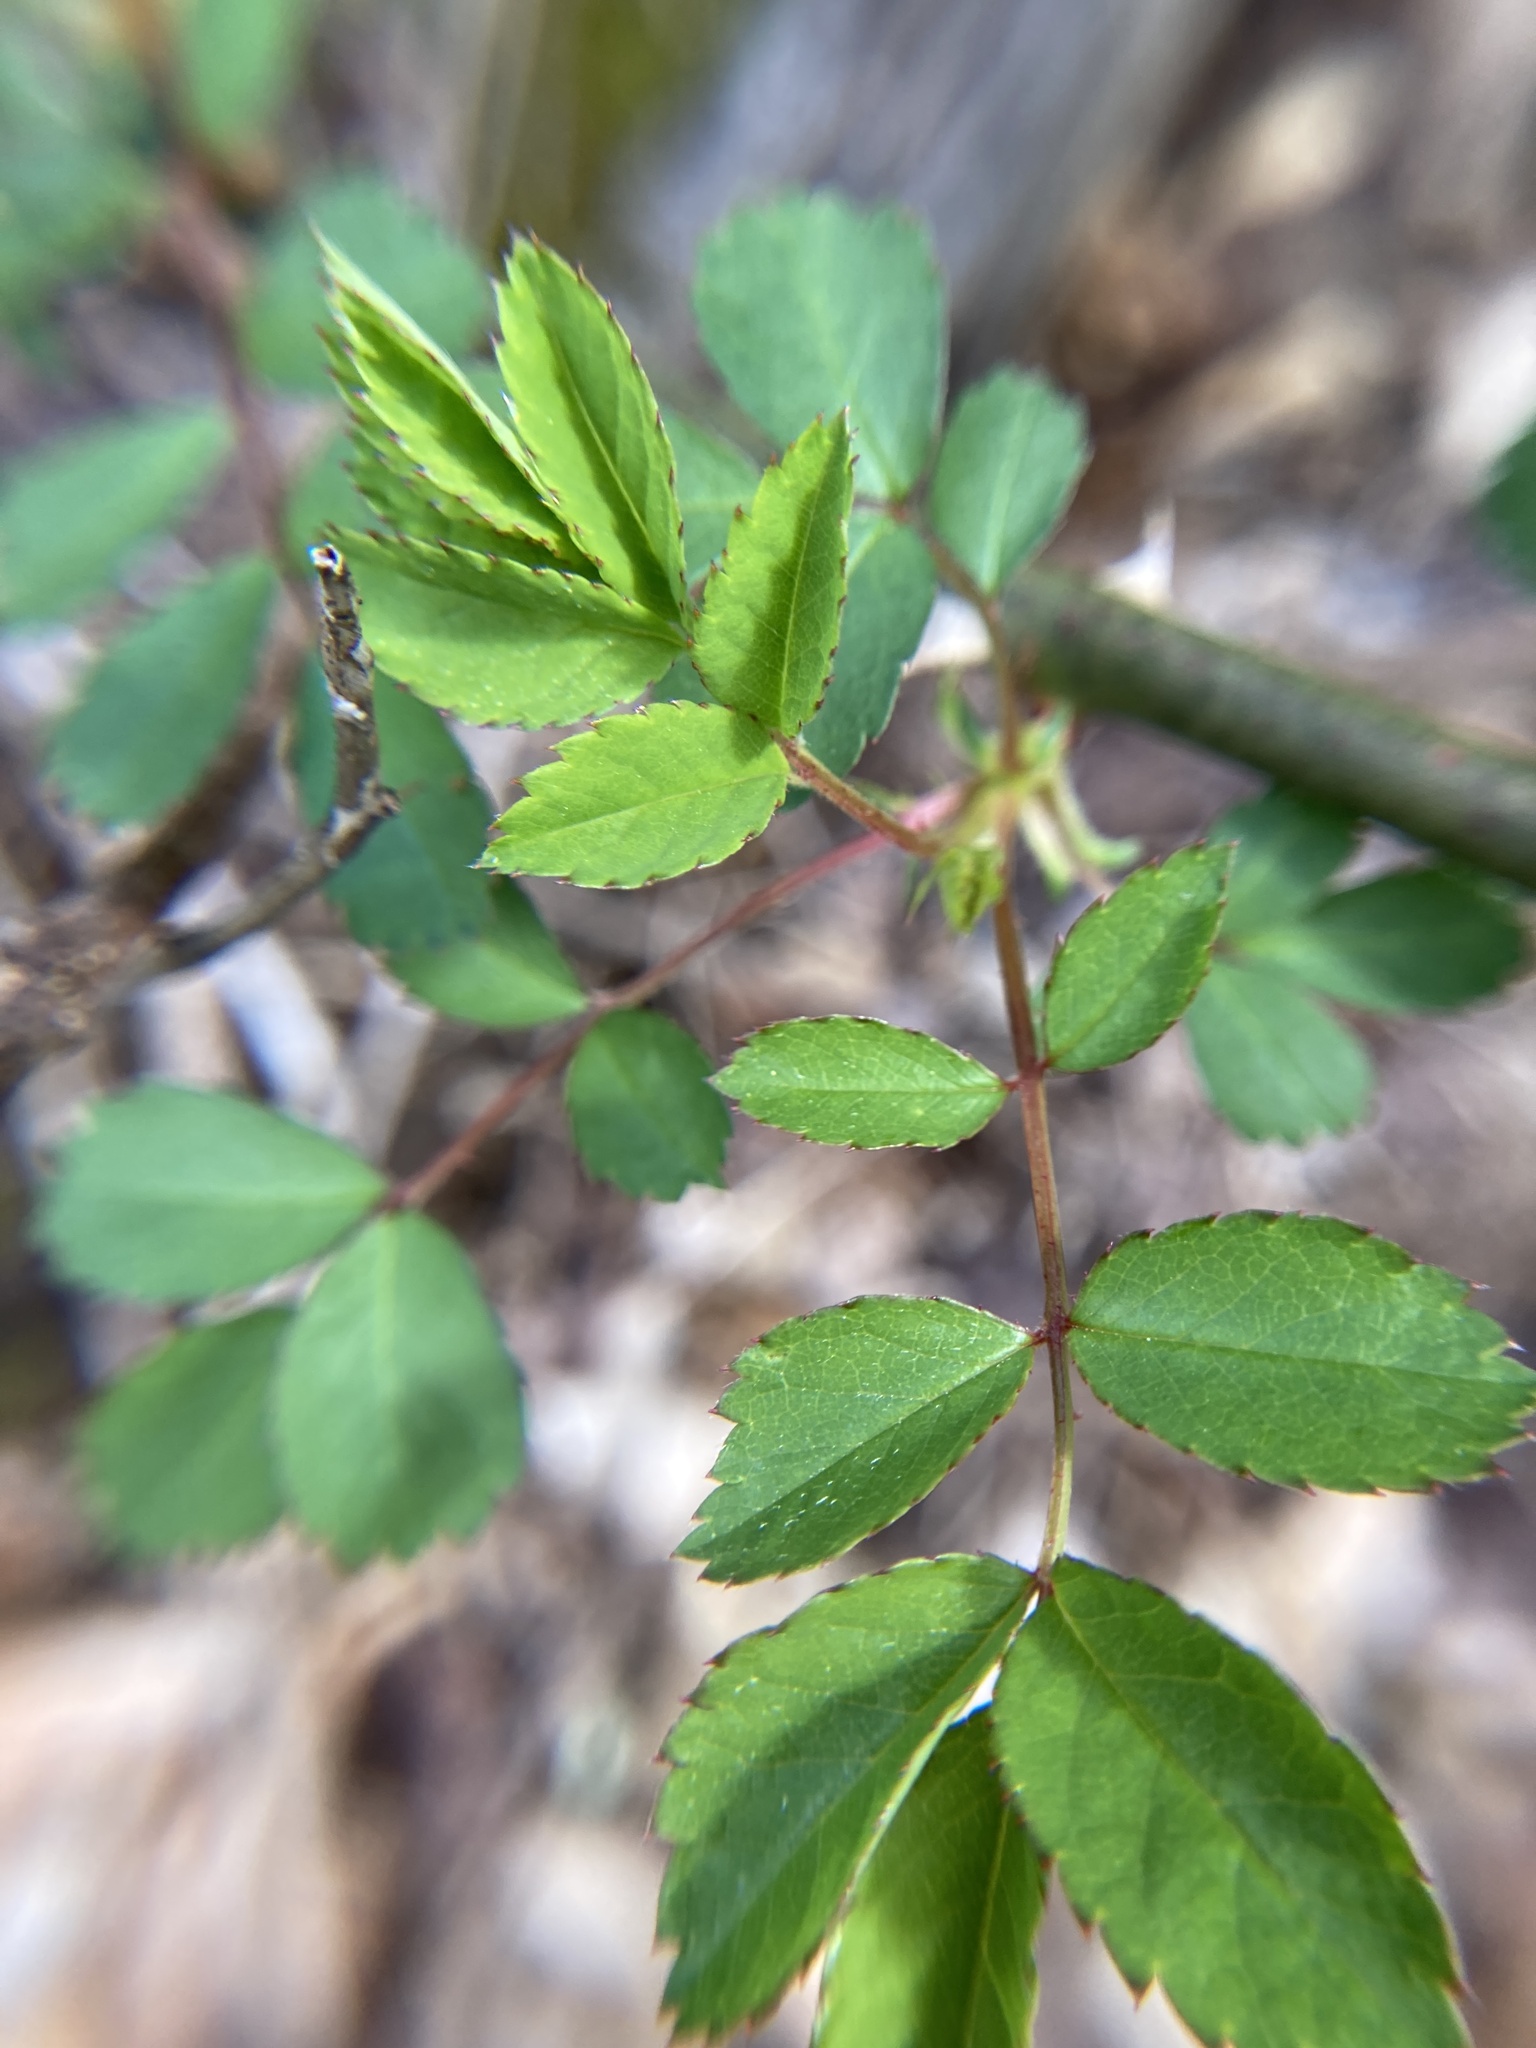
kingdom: Plantae
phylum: Tracheophyta
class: Magnoliopsida
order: Rosales
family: Rosaceae
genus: Rosa
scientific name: Rosa multiflora
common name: Multiflora rose
